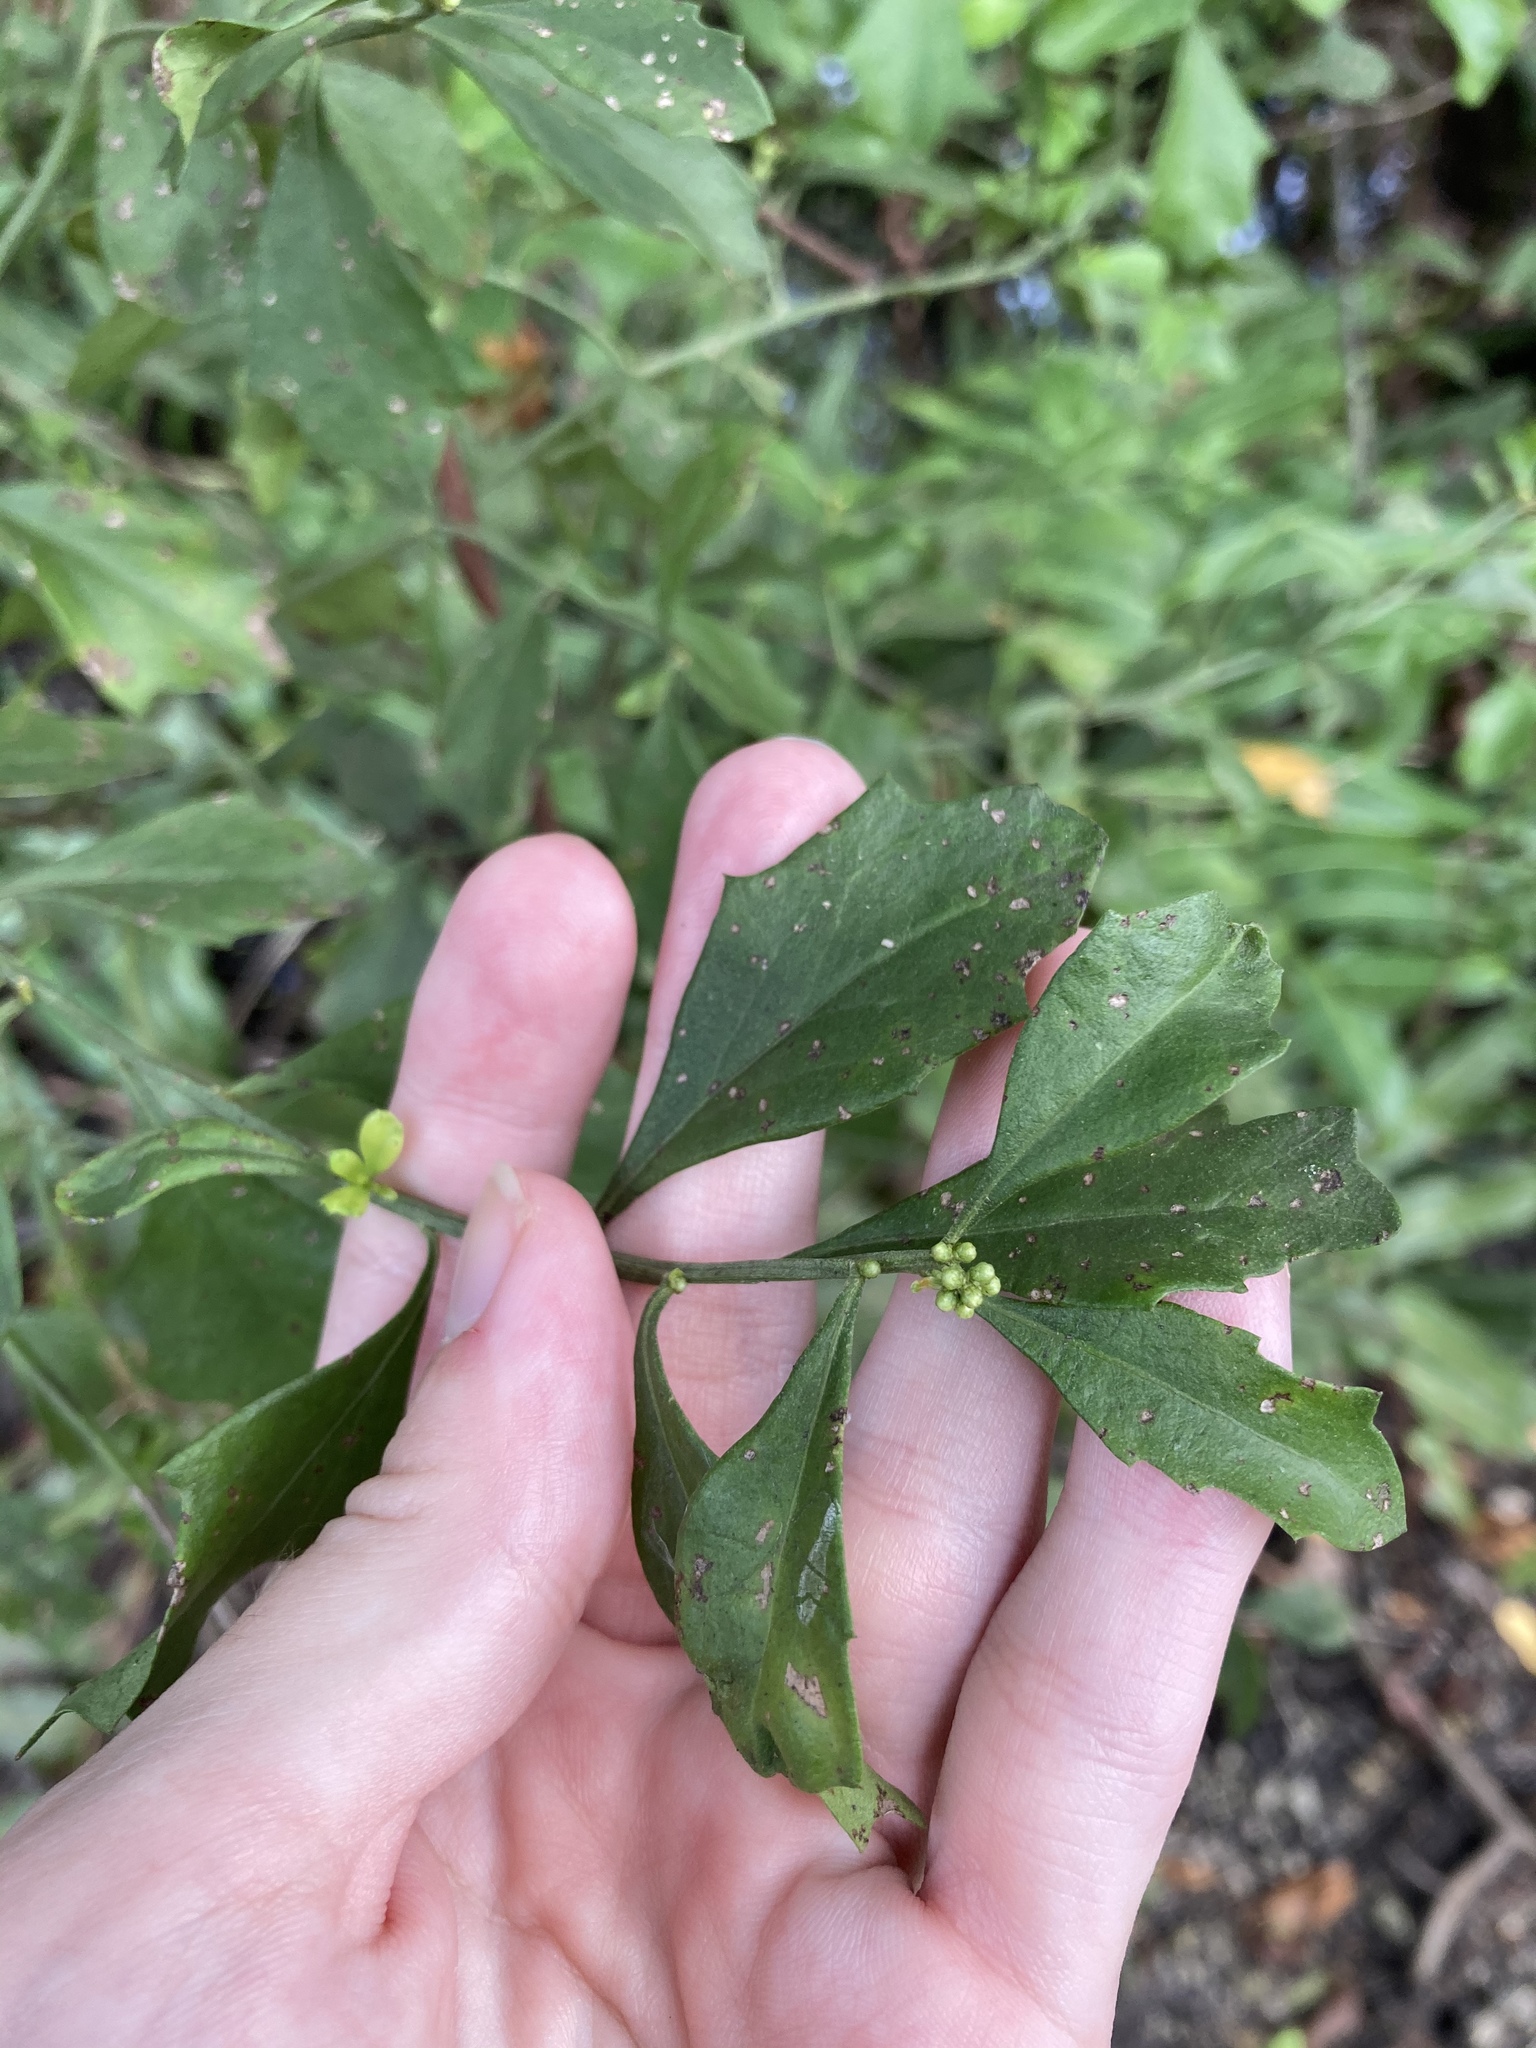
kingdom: Plantae
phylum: Tracheophyta
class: Magnoliopsida
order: Asterales
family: Asteraceae
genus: Baccharis
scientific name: Baccharis glomeruliflora
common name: Silverling groundsel bush
